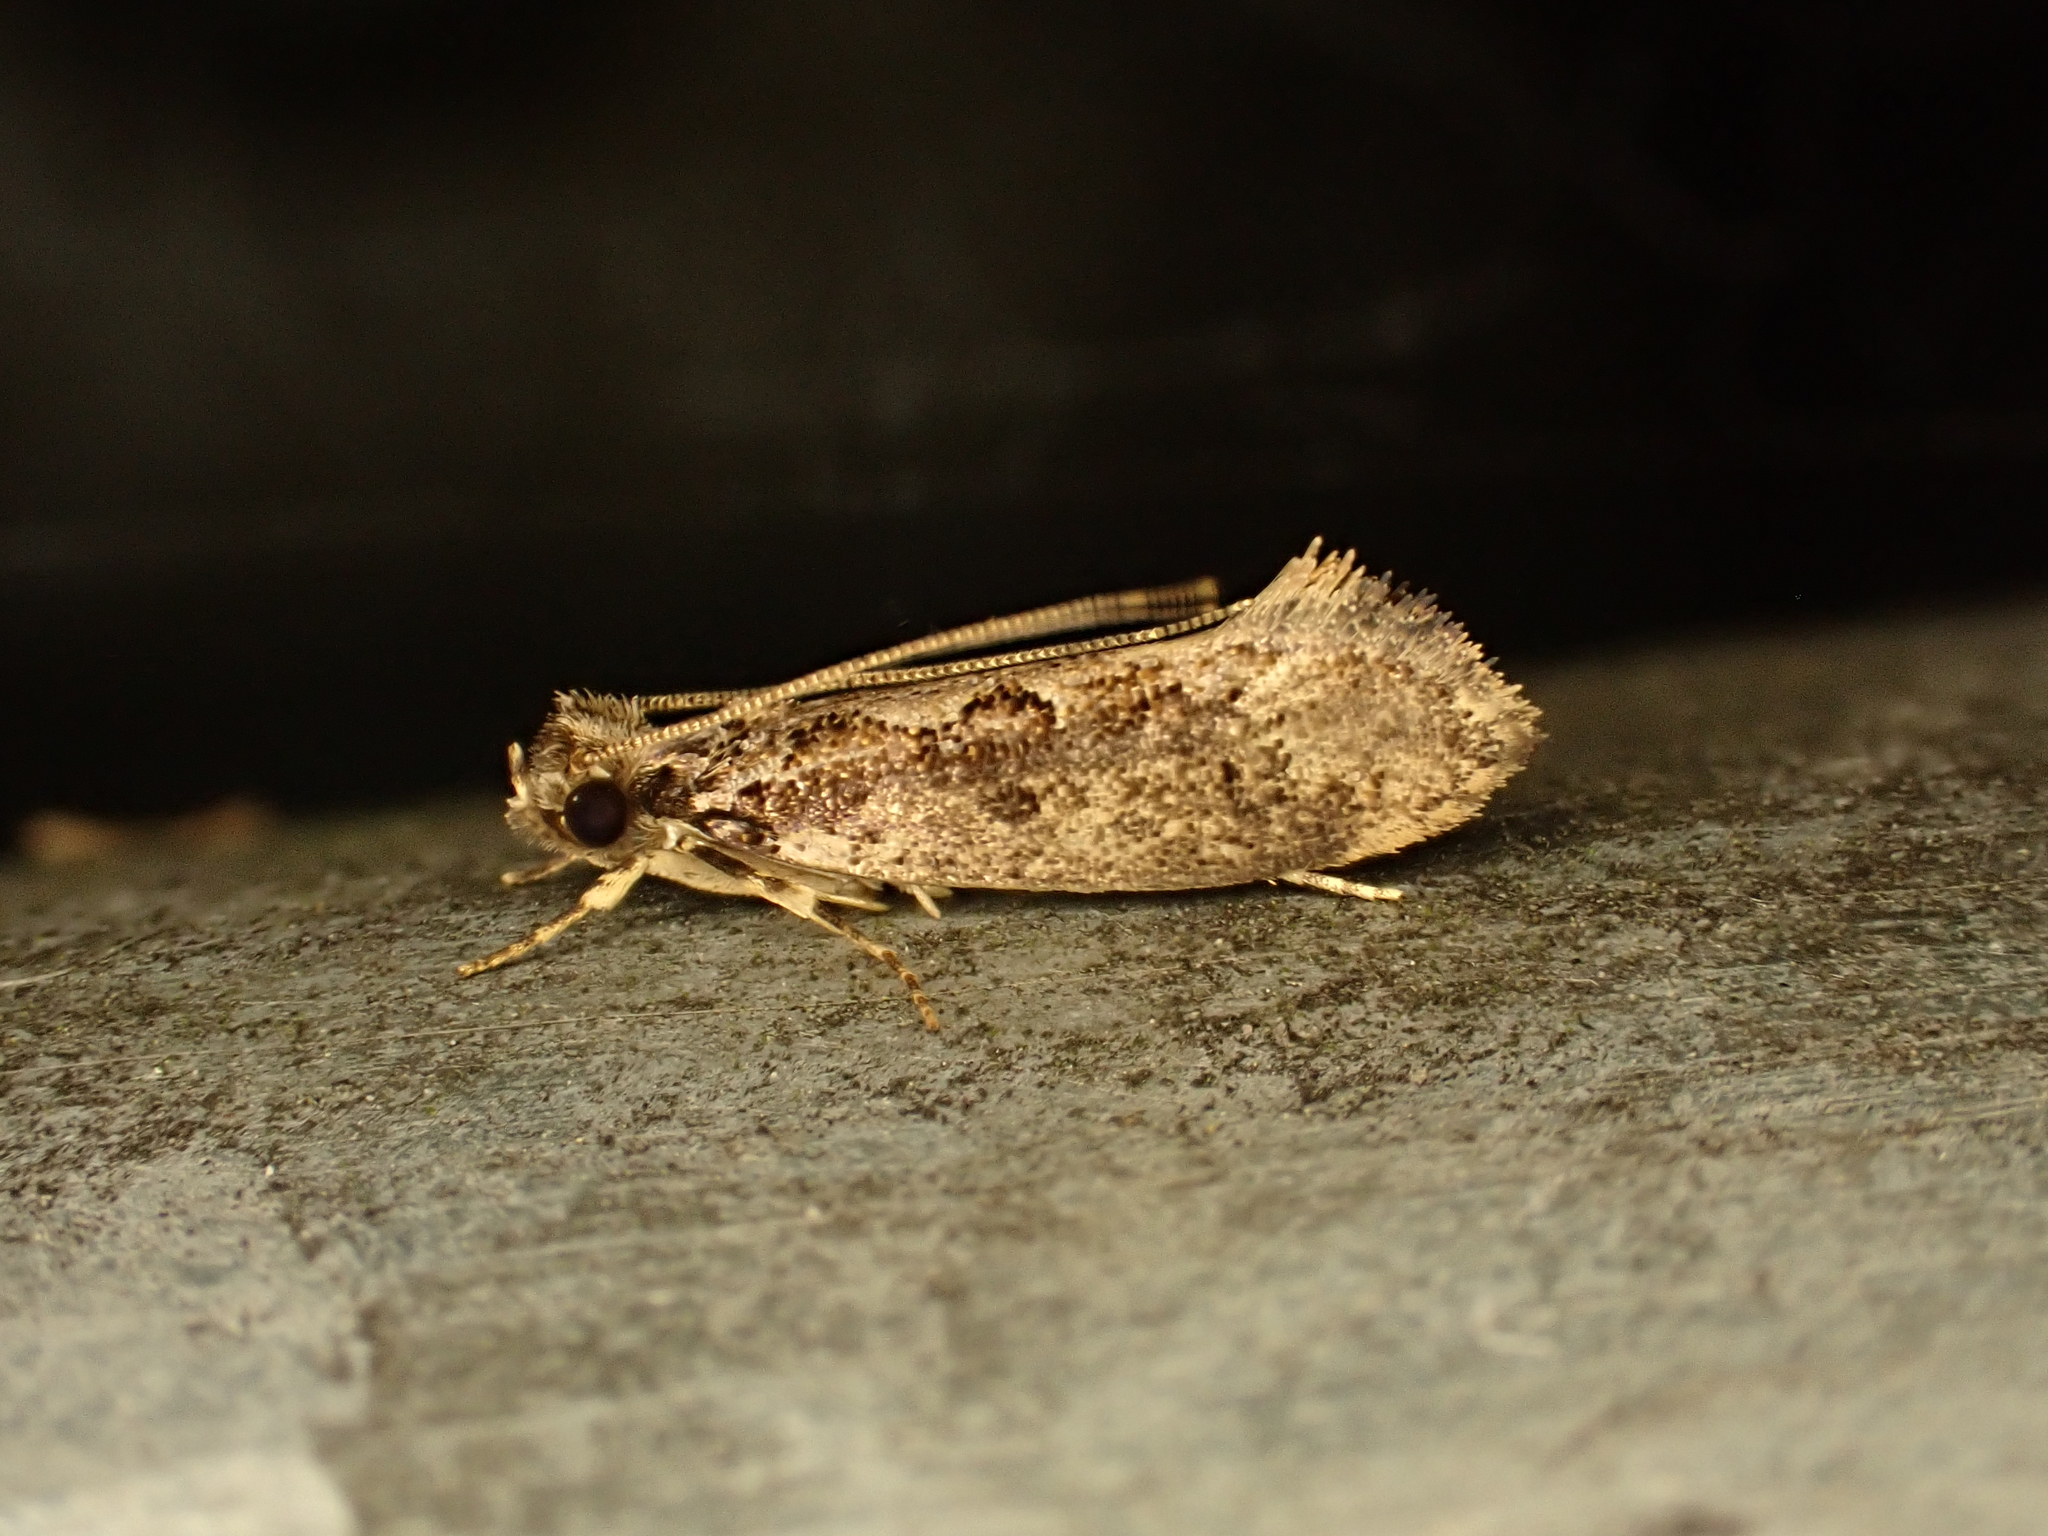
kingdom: Animalia
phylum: Arthropoda
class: Insecta
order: Lepidoptera
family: Tineidae
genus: Erechthias
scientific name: Erechthias capnitis
